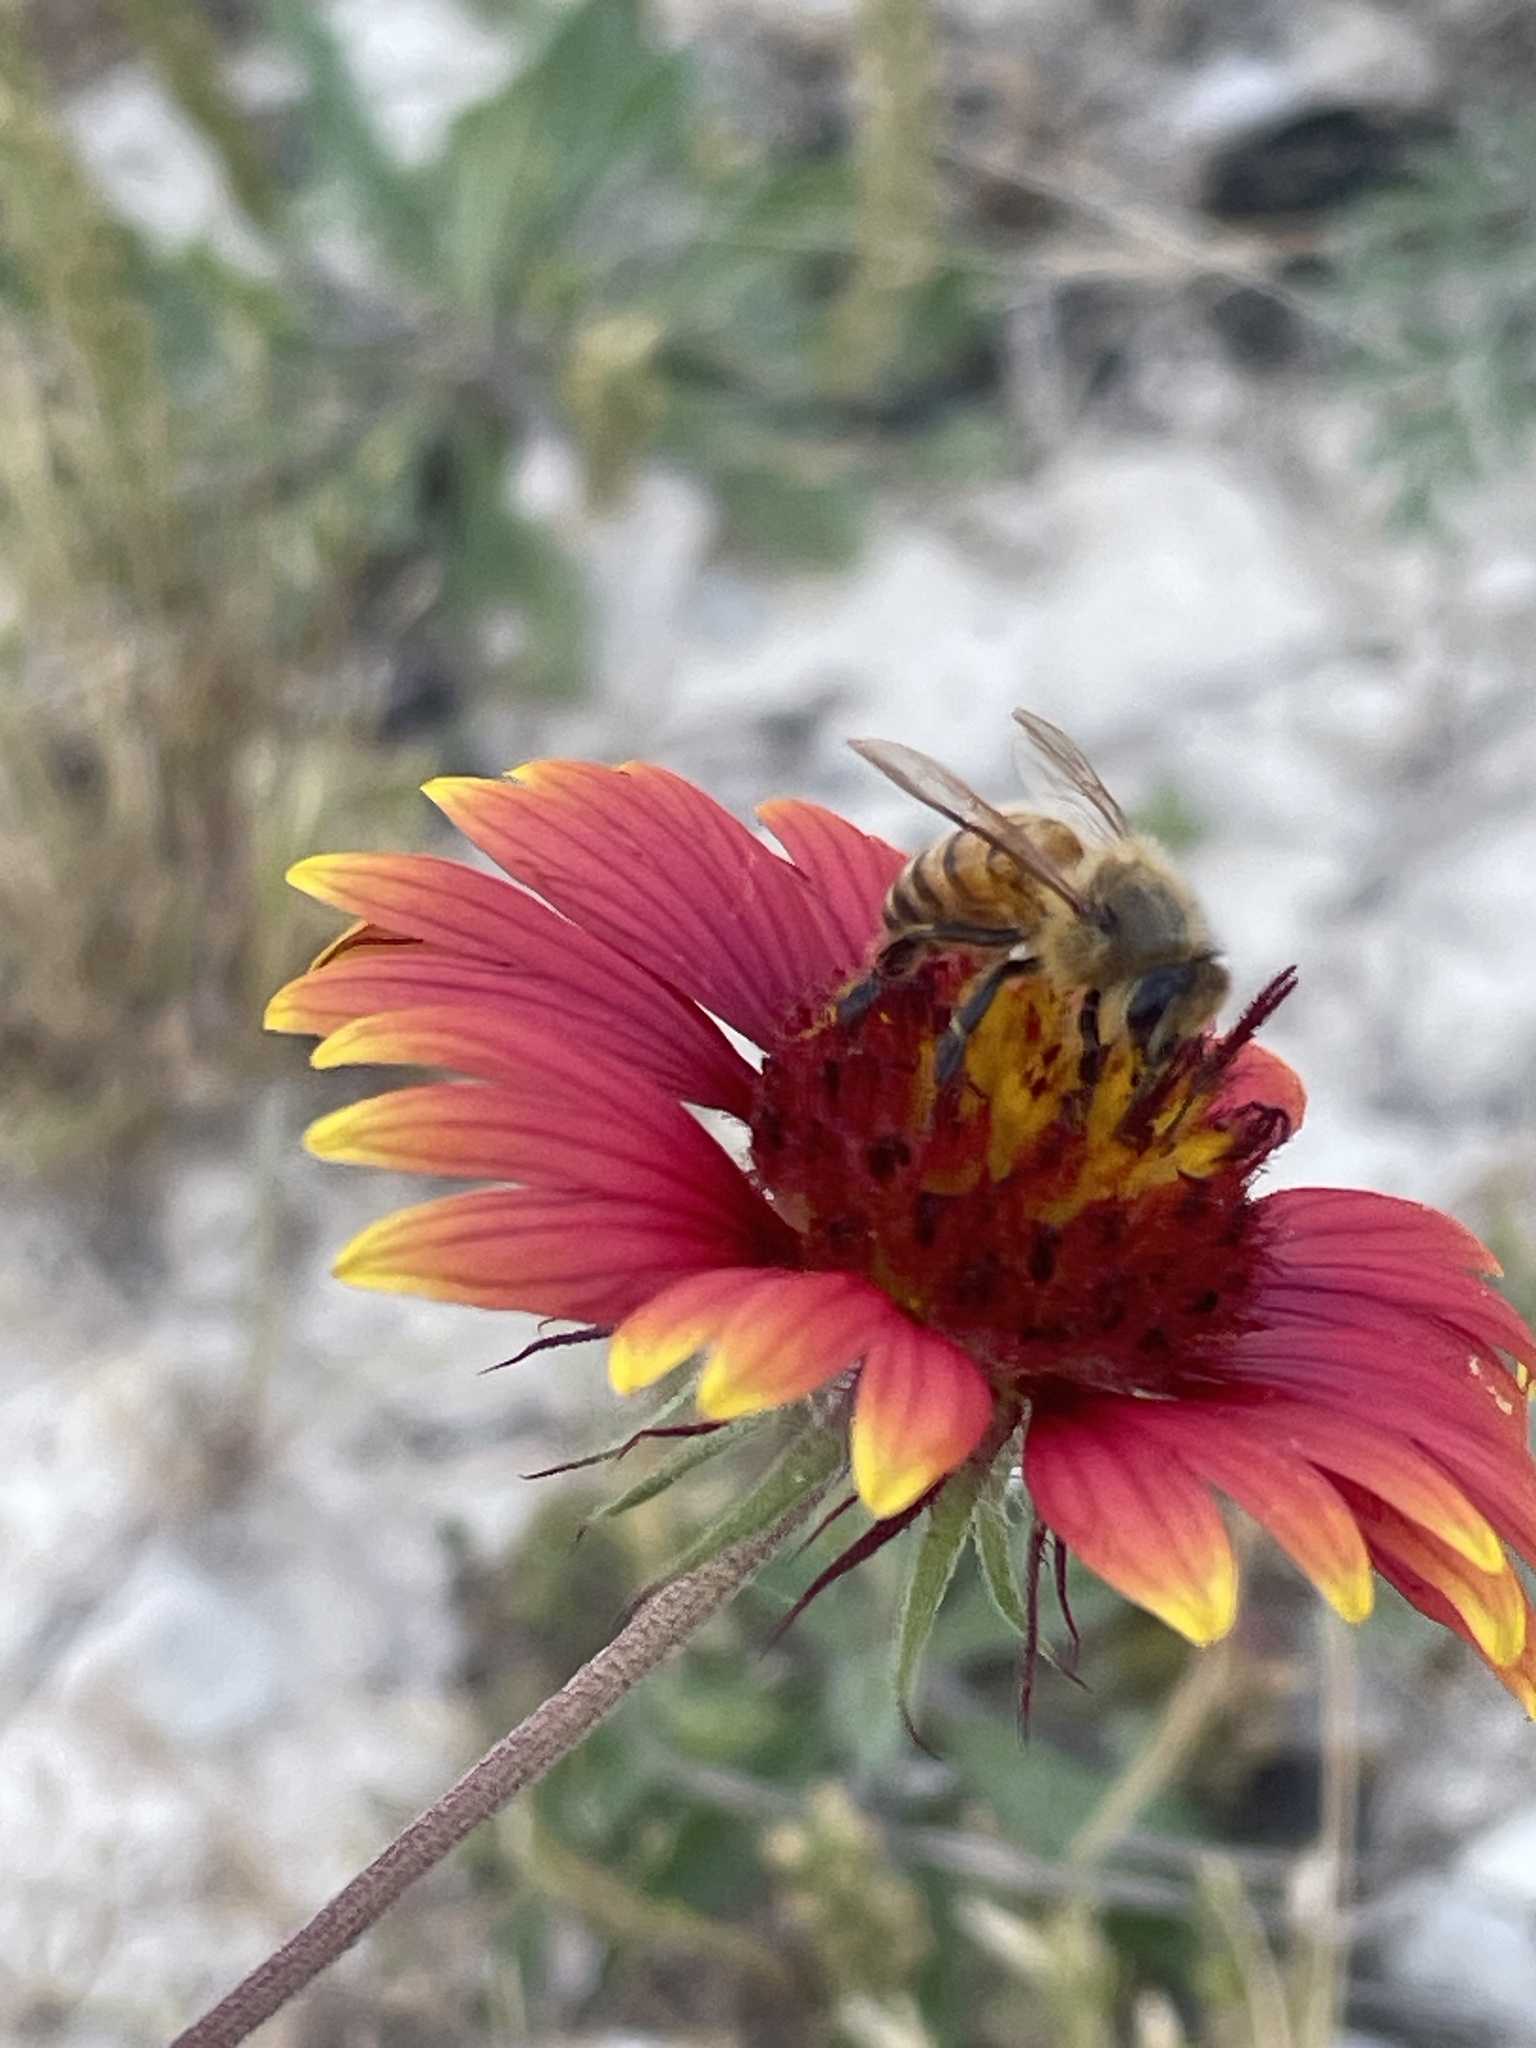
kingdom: Animalia
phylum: Arthropoda
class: Insecta
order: Hymenoptera
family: Apidae
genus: Apis
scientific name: Apis mellifera
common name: Honey bee
